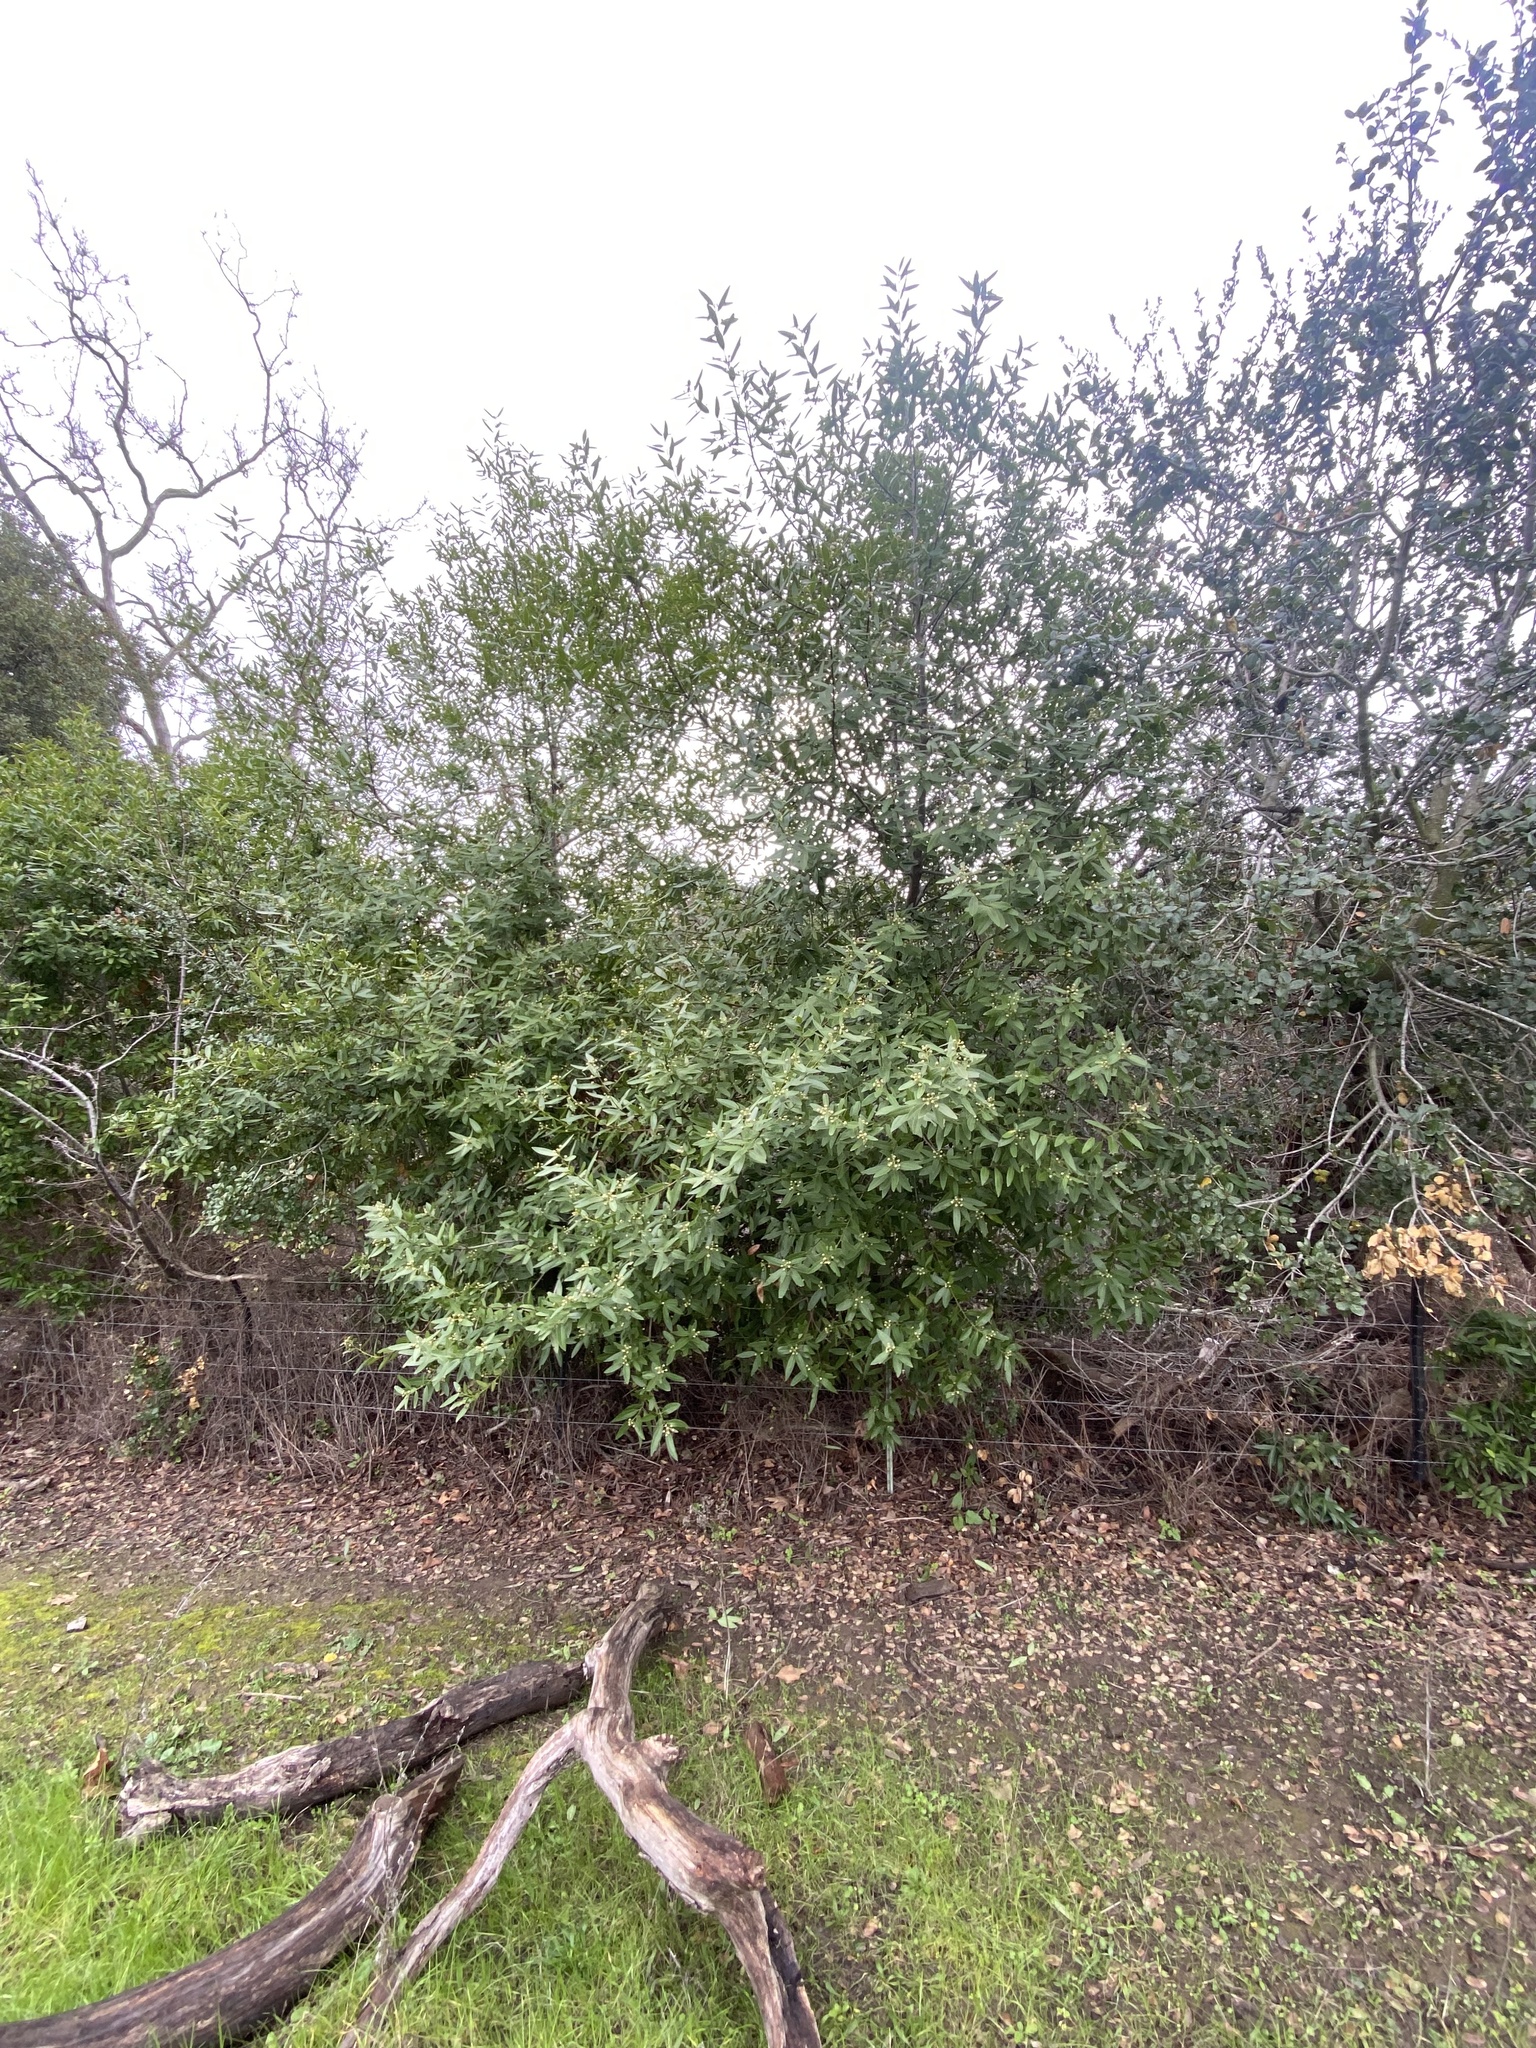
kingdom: Plantae
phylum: Tracheophyta
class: Magnoliopsida
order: Laurales
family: Lauraceae
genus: Umbellularia
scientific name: Umbellularia californica
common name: California bay
